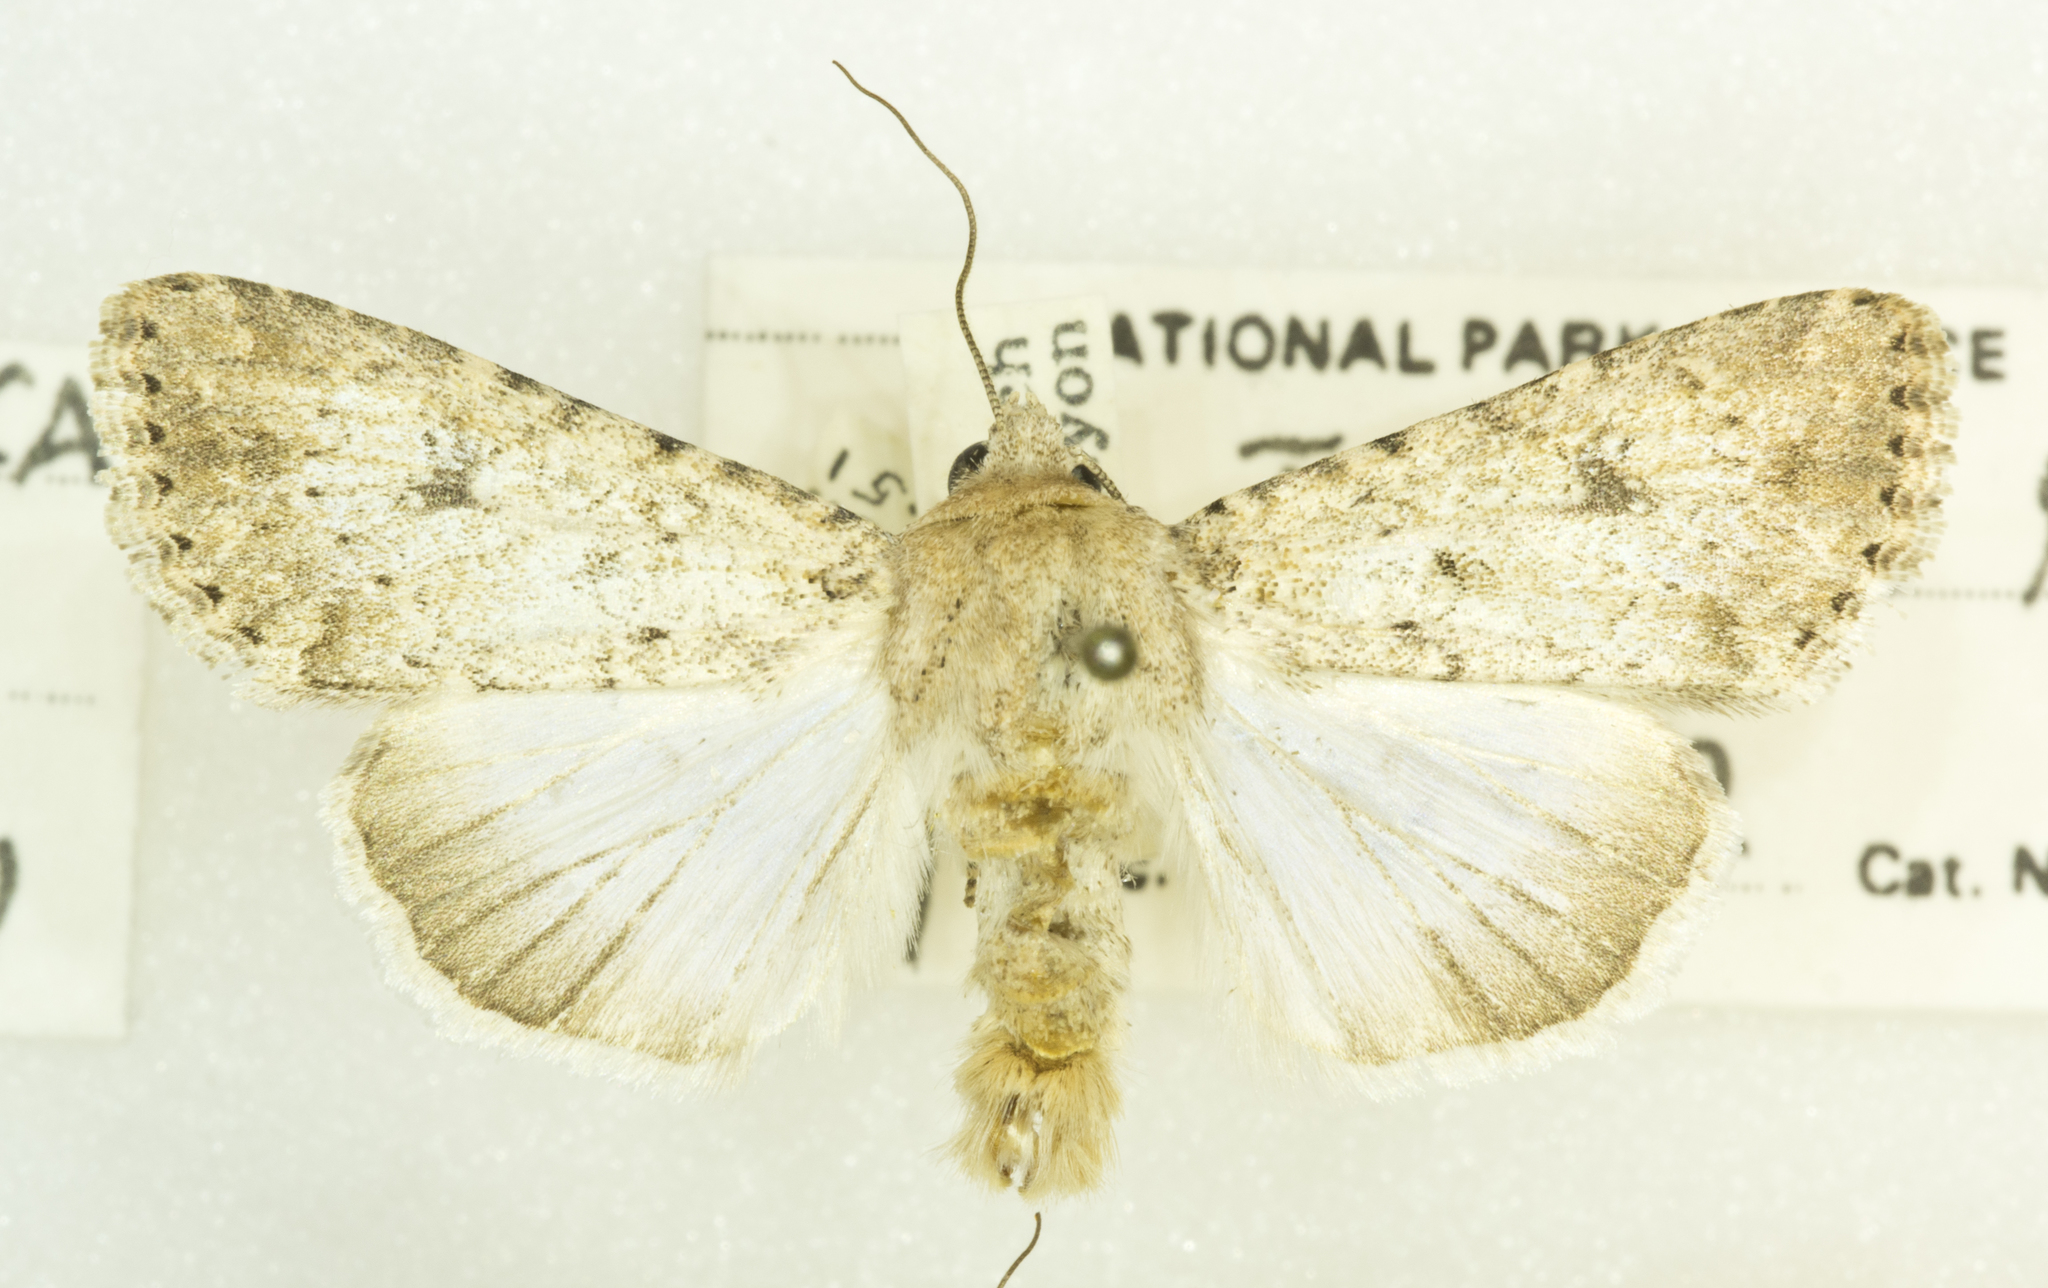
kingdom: Animalia
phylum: Arthropoda
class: Insecta
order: Lepidoptera
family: Noctuidae
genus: Tridepia
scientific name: Tridepia nova
